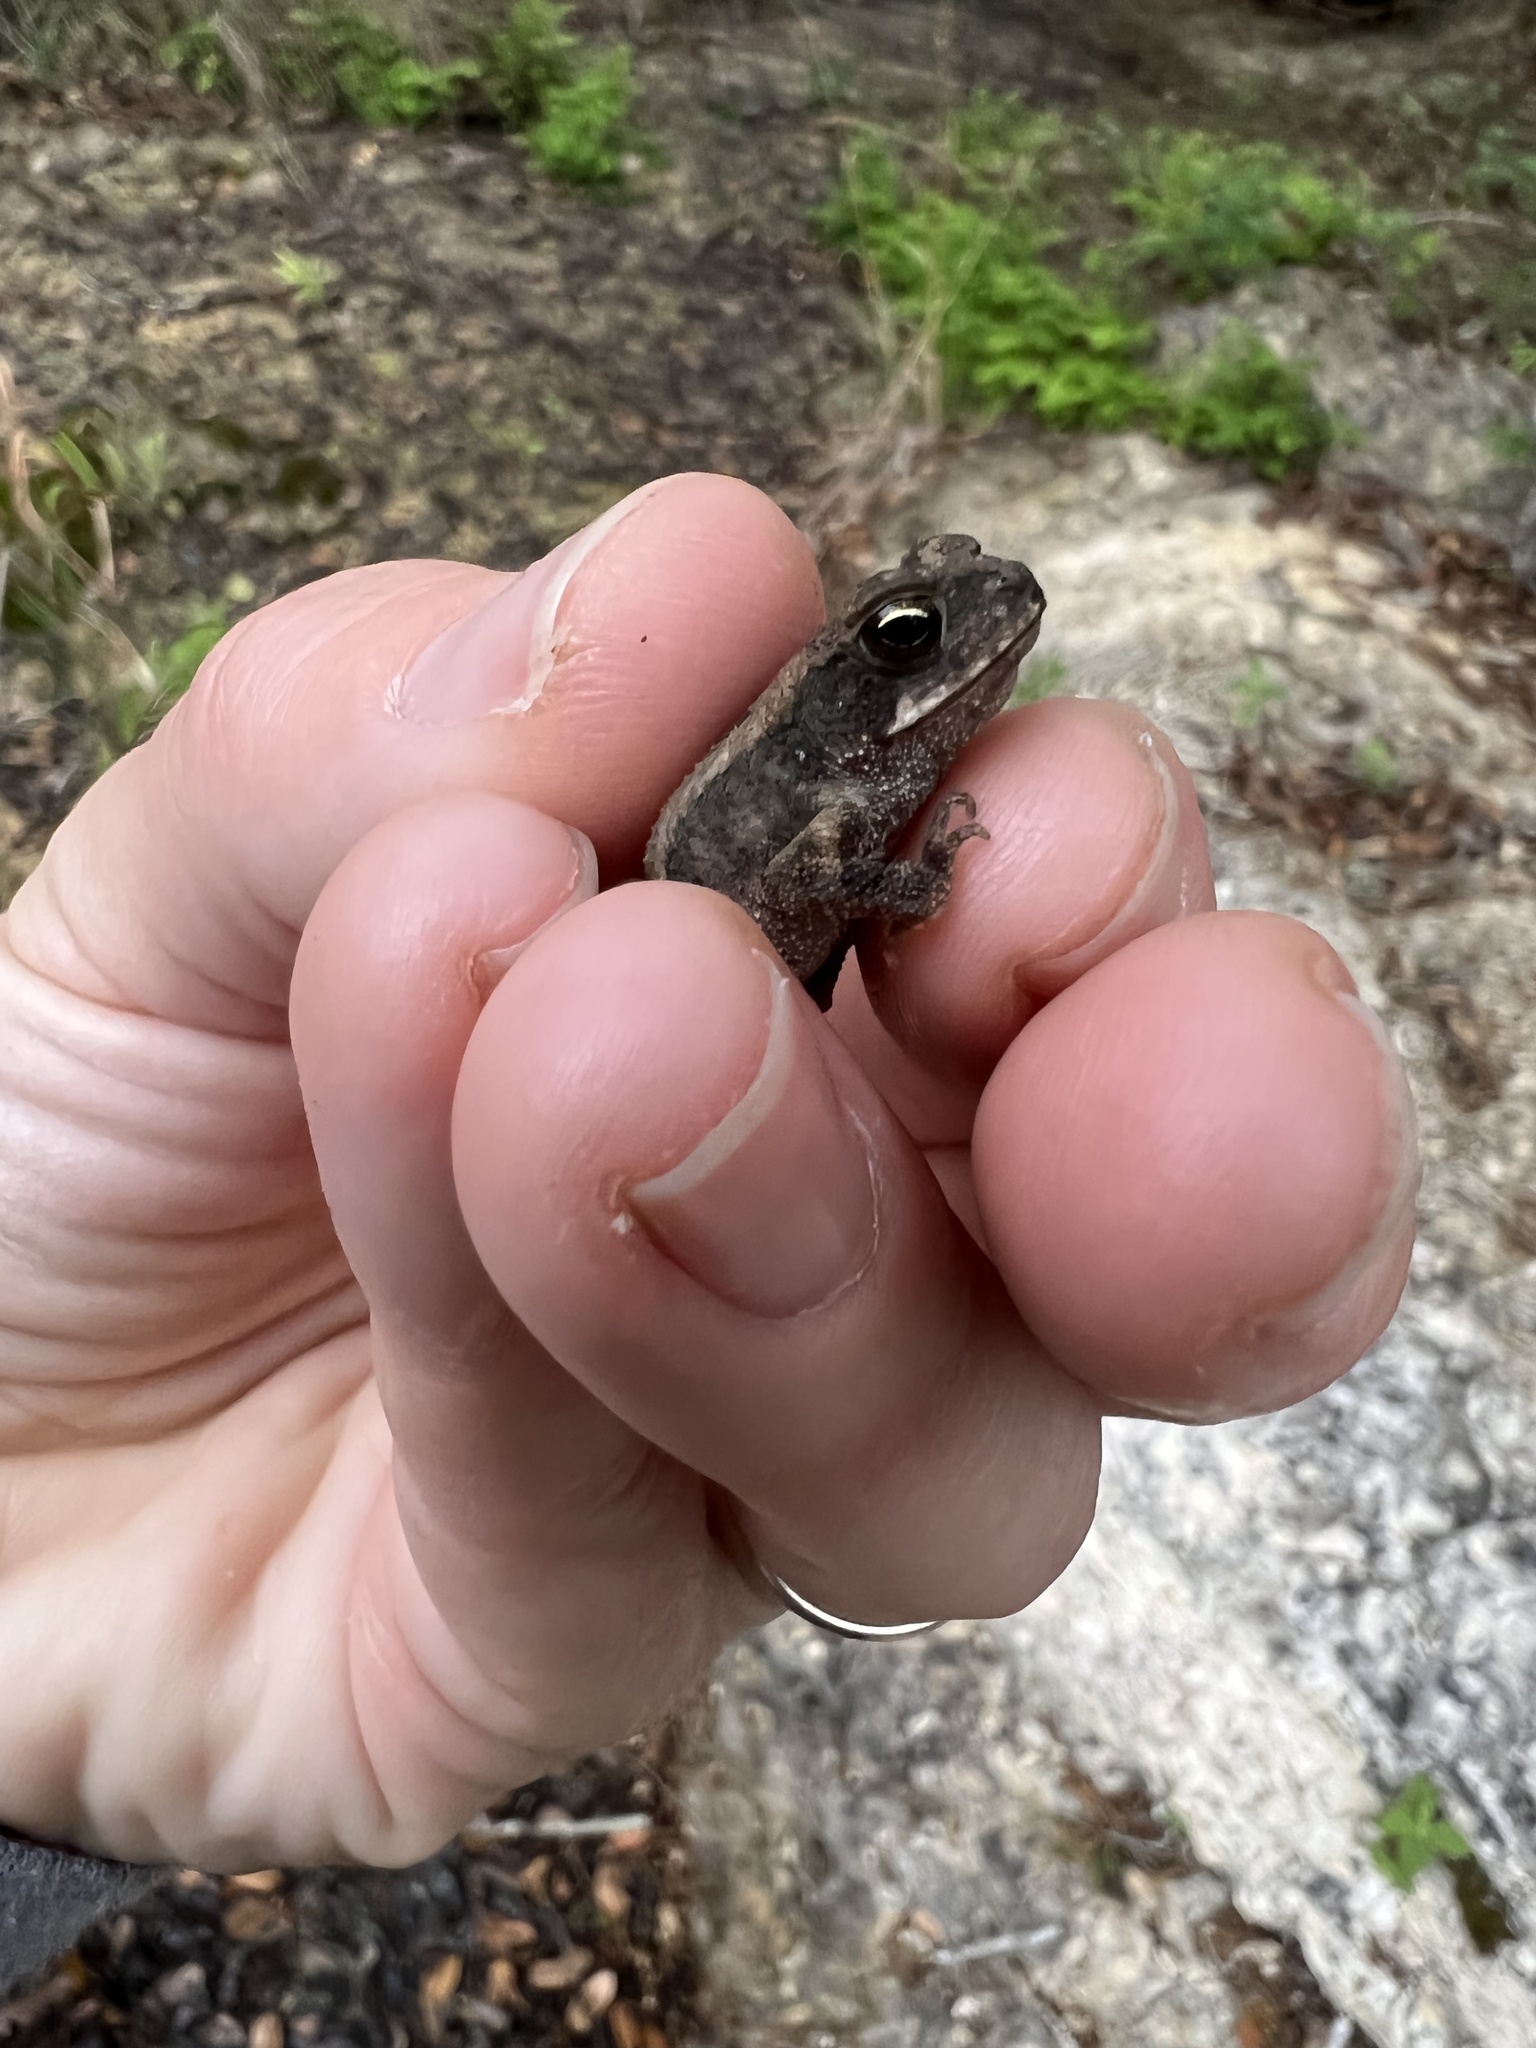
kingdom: Animalia
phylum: Chordata
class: Amphibia
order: Anura
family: Bufonidae
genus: Incilius
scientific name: Incilius nebulifer
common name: Gulf coast toad
